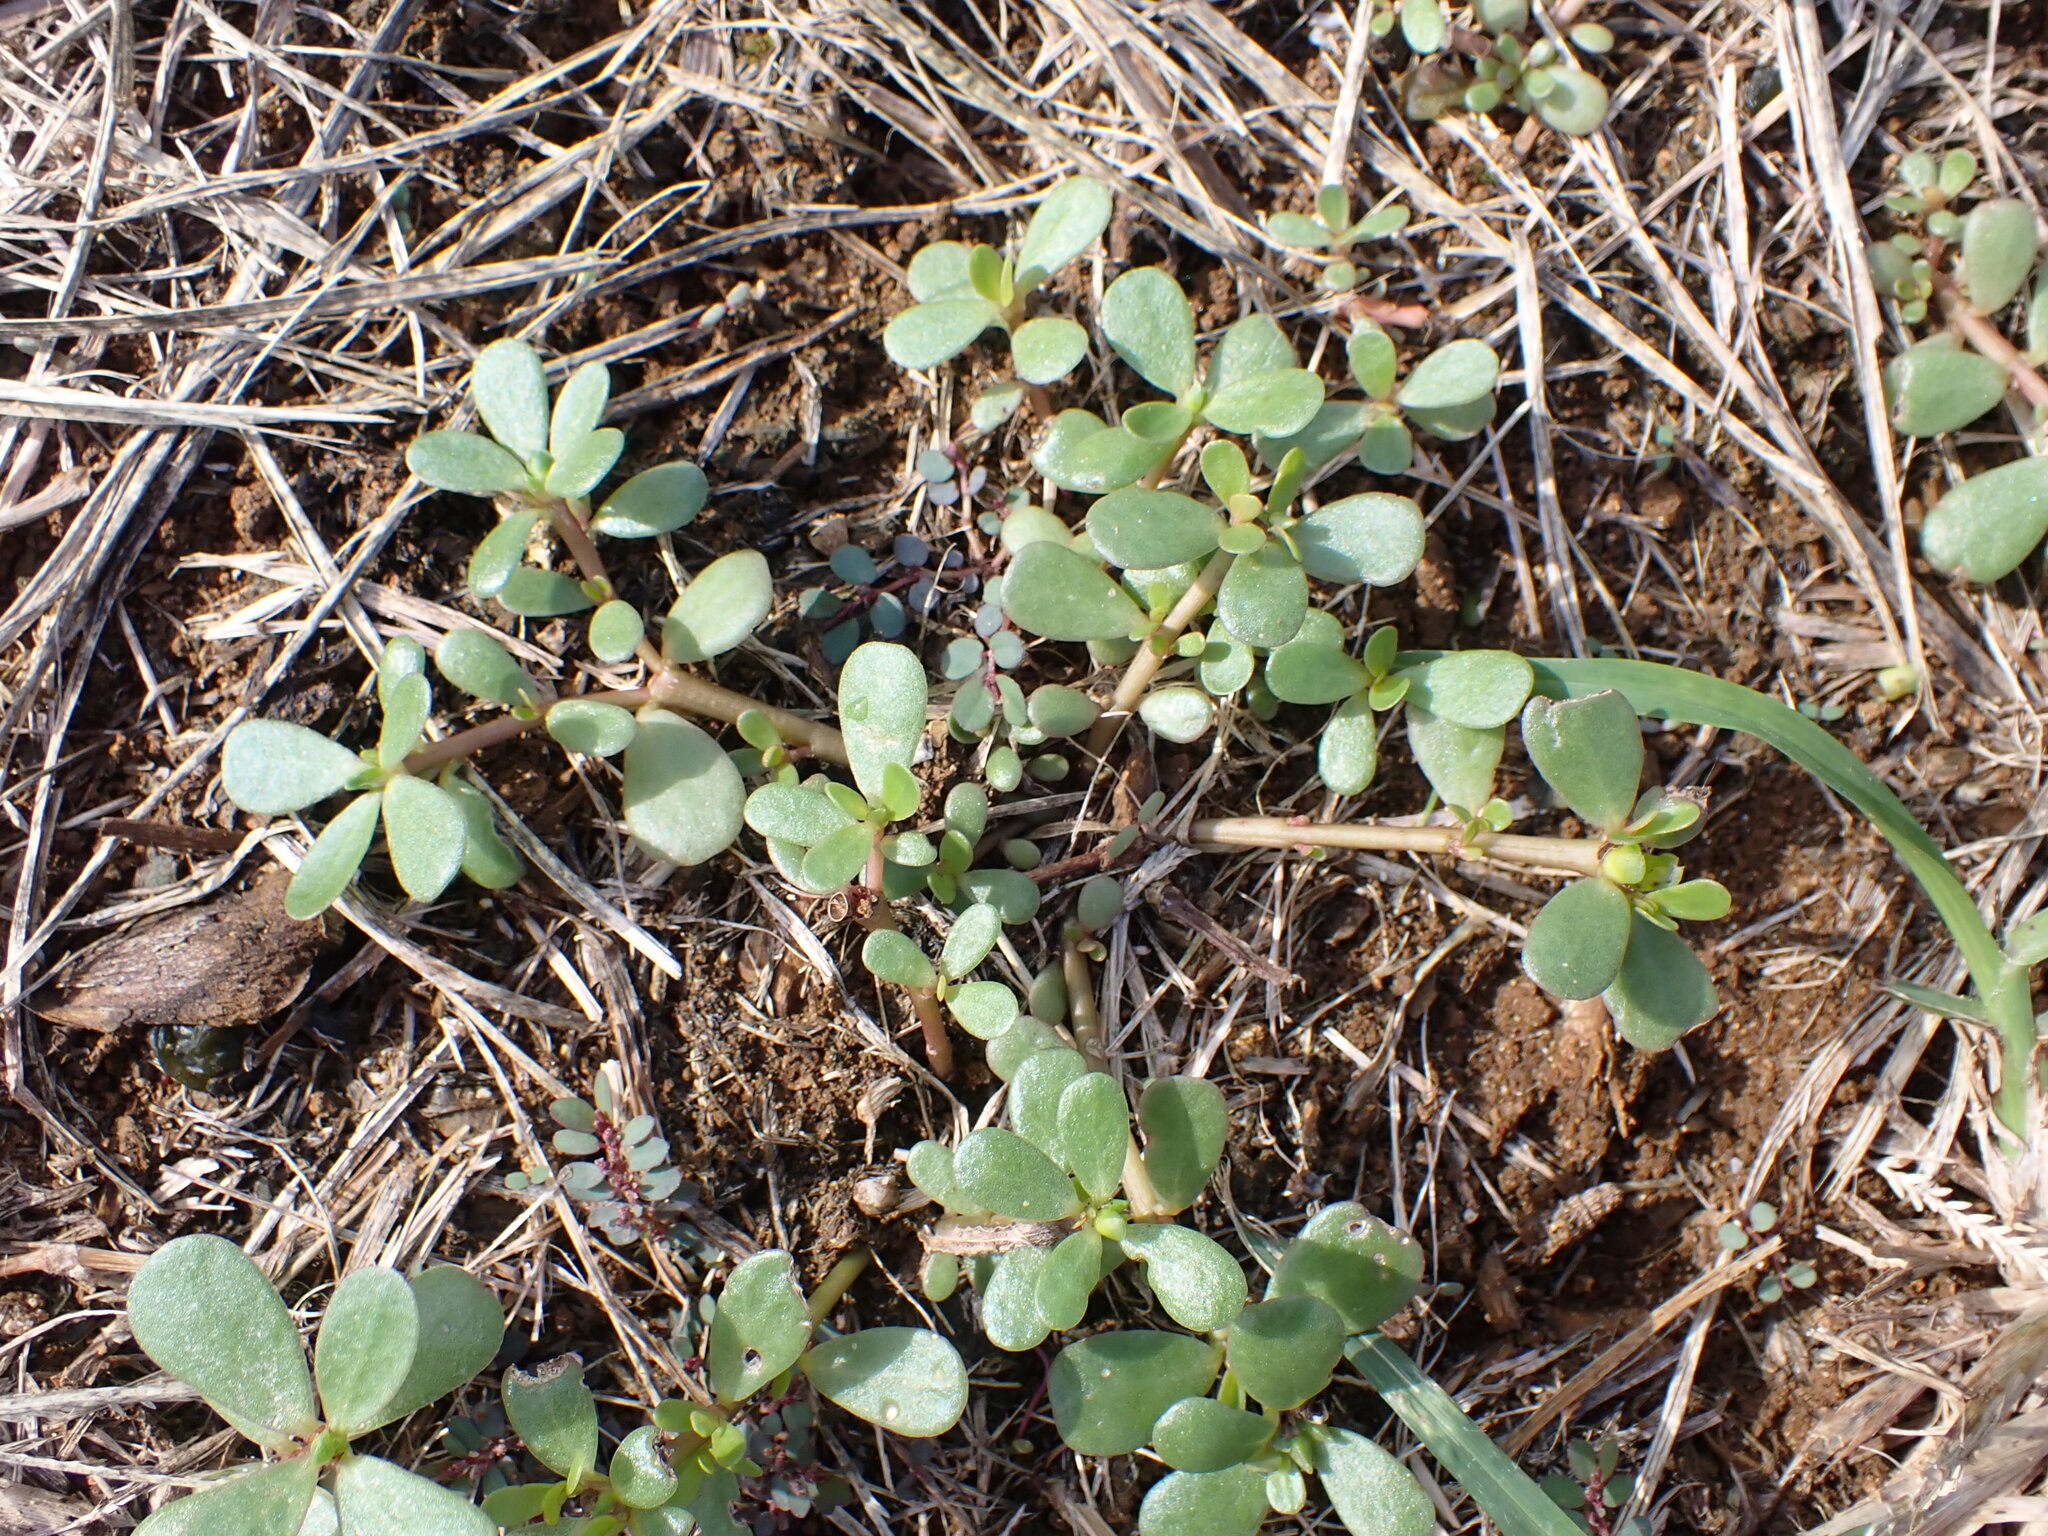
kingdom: Plantae
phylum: Tracheophyta
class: Magnoliopsida
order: Caryophyllales
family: Portulacaceae
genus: Portulaca
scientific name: Portulaca oleracea
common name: Common purslane
